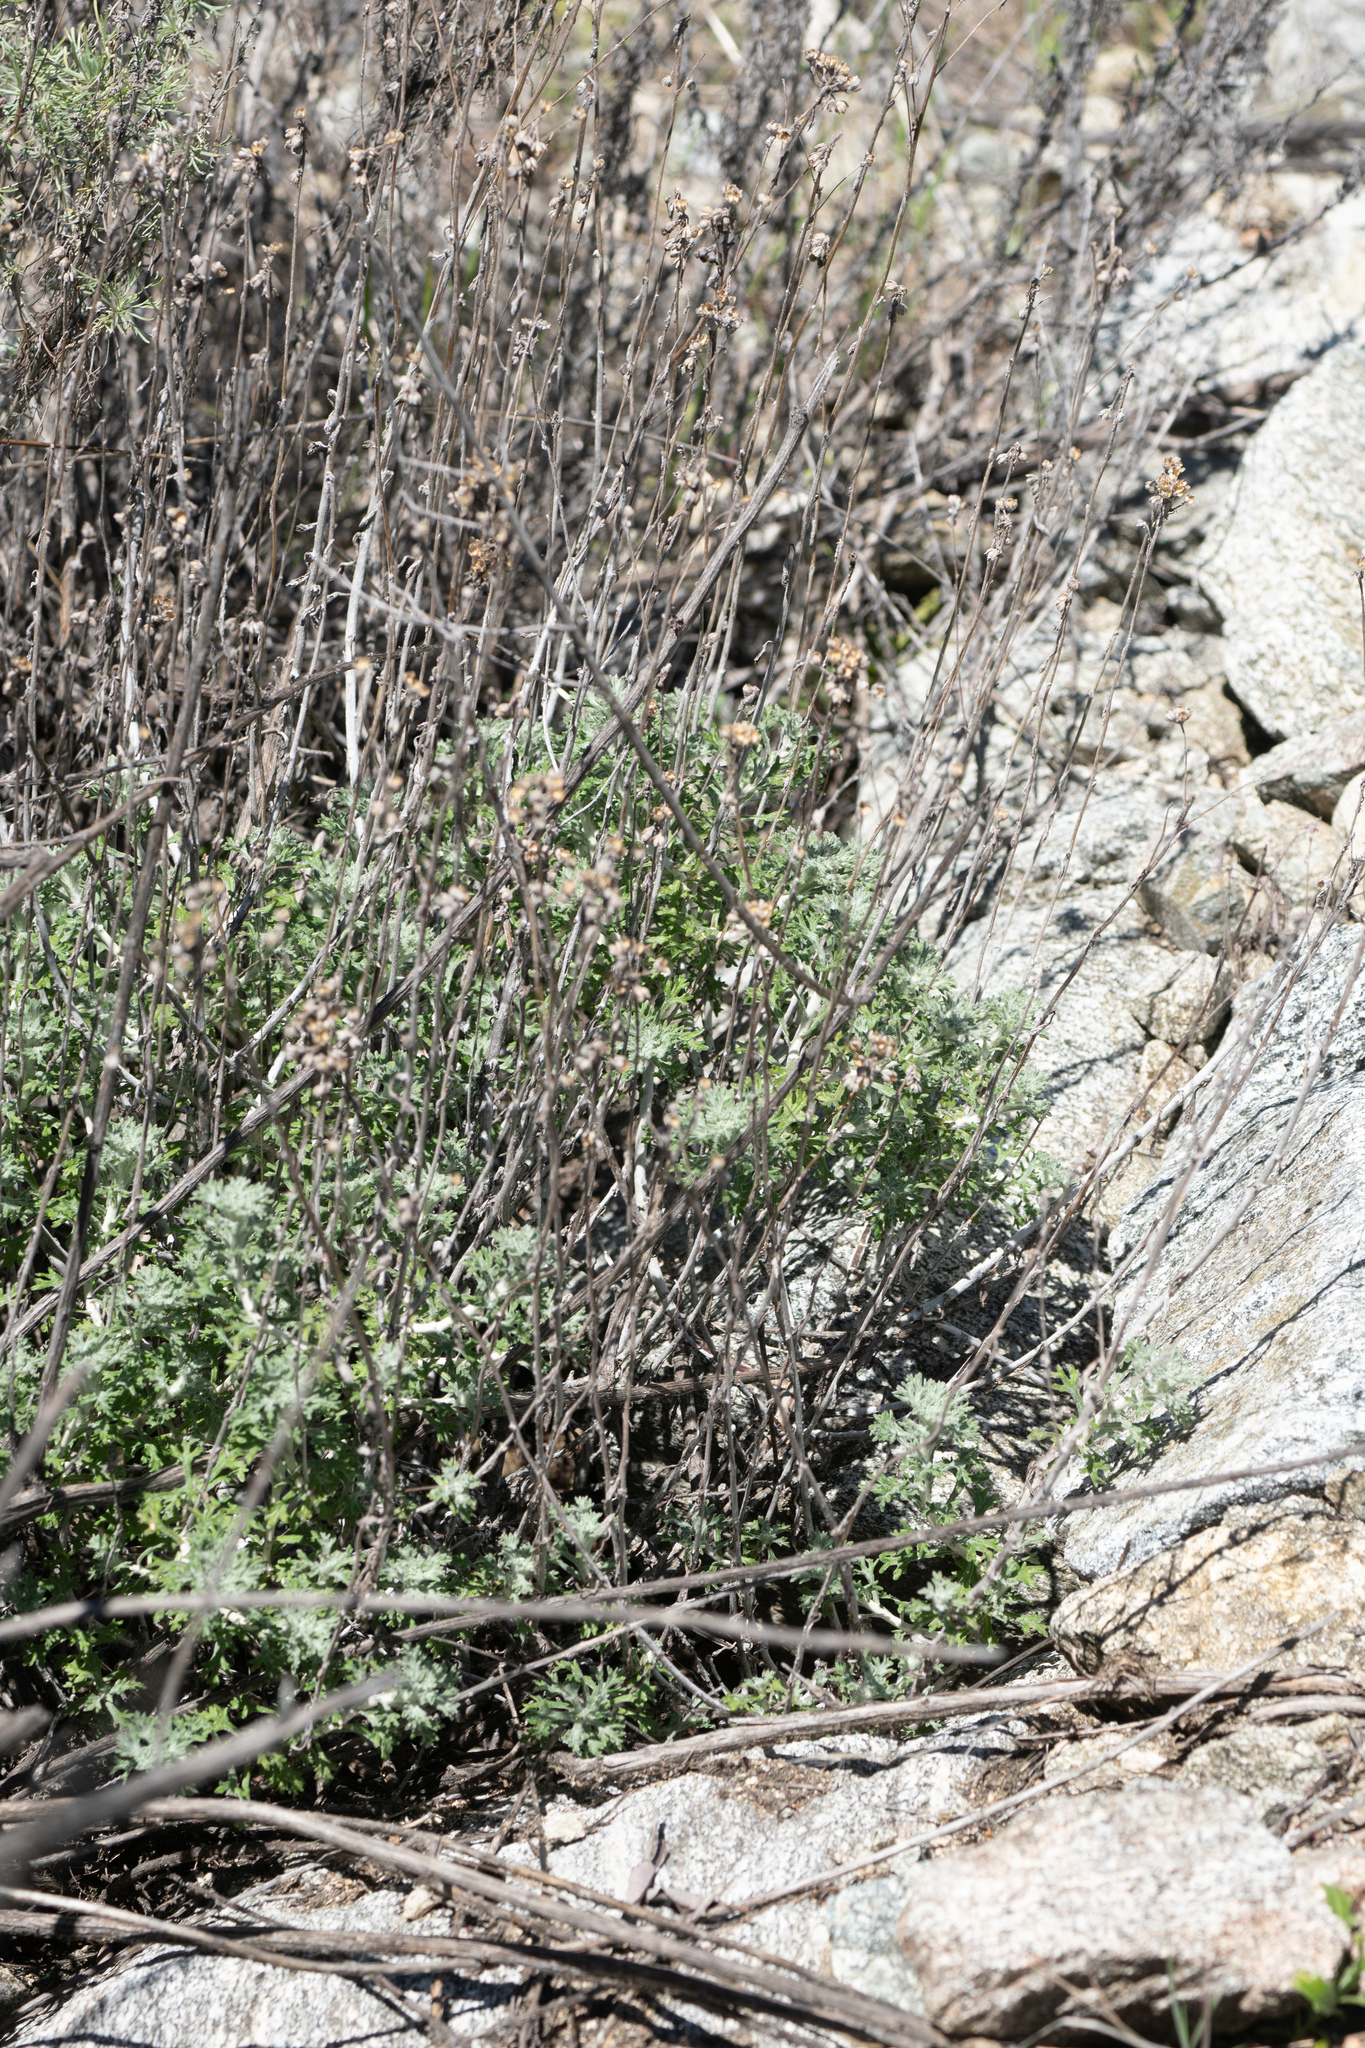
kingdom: Plantae
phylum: Tracheophyta
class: Magnoliopsida
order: Asterales
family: Asteraceae
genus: Eriophyllum
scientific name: Eriophyllum confertiflorum
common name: Golden-yarrow
